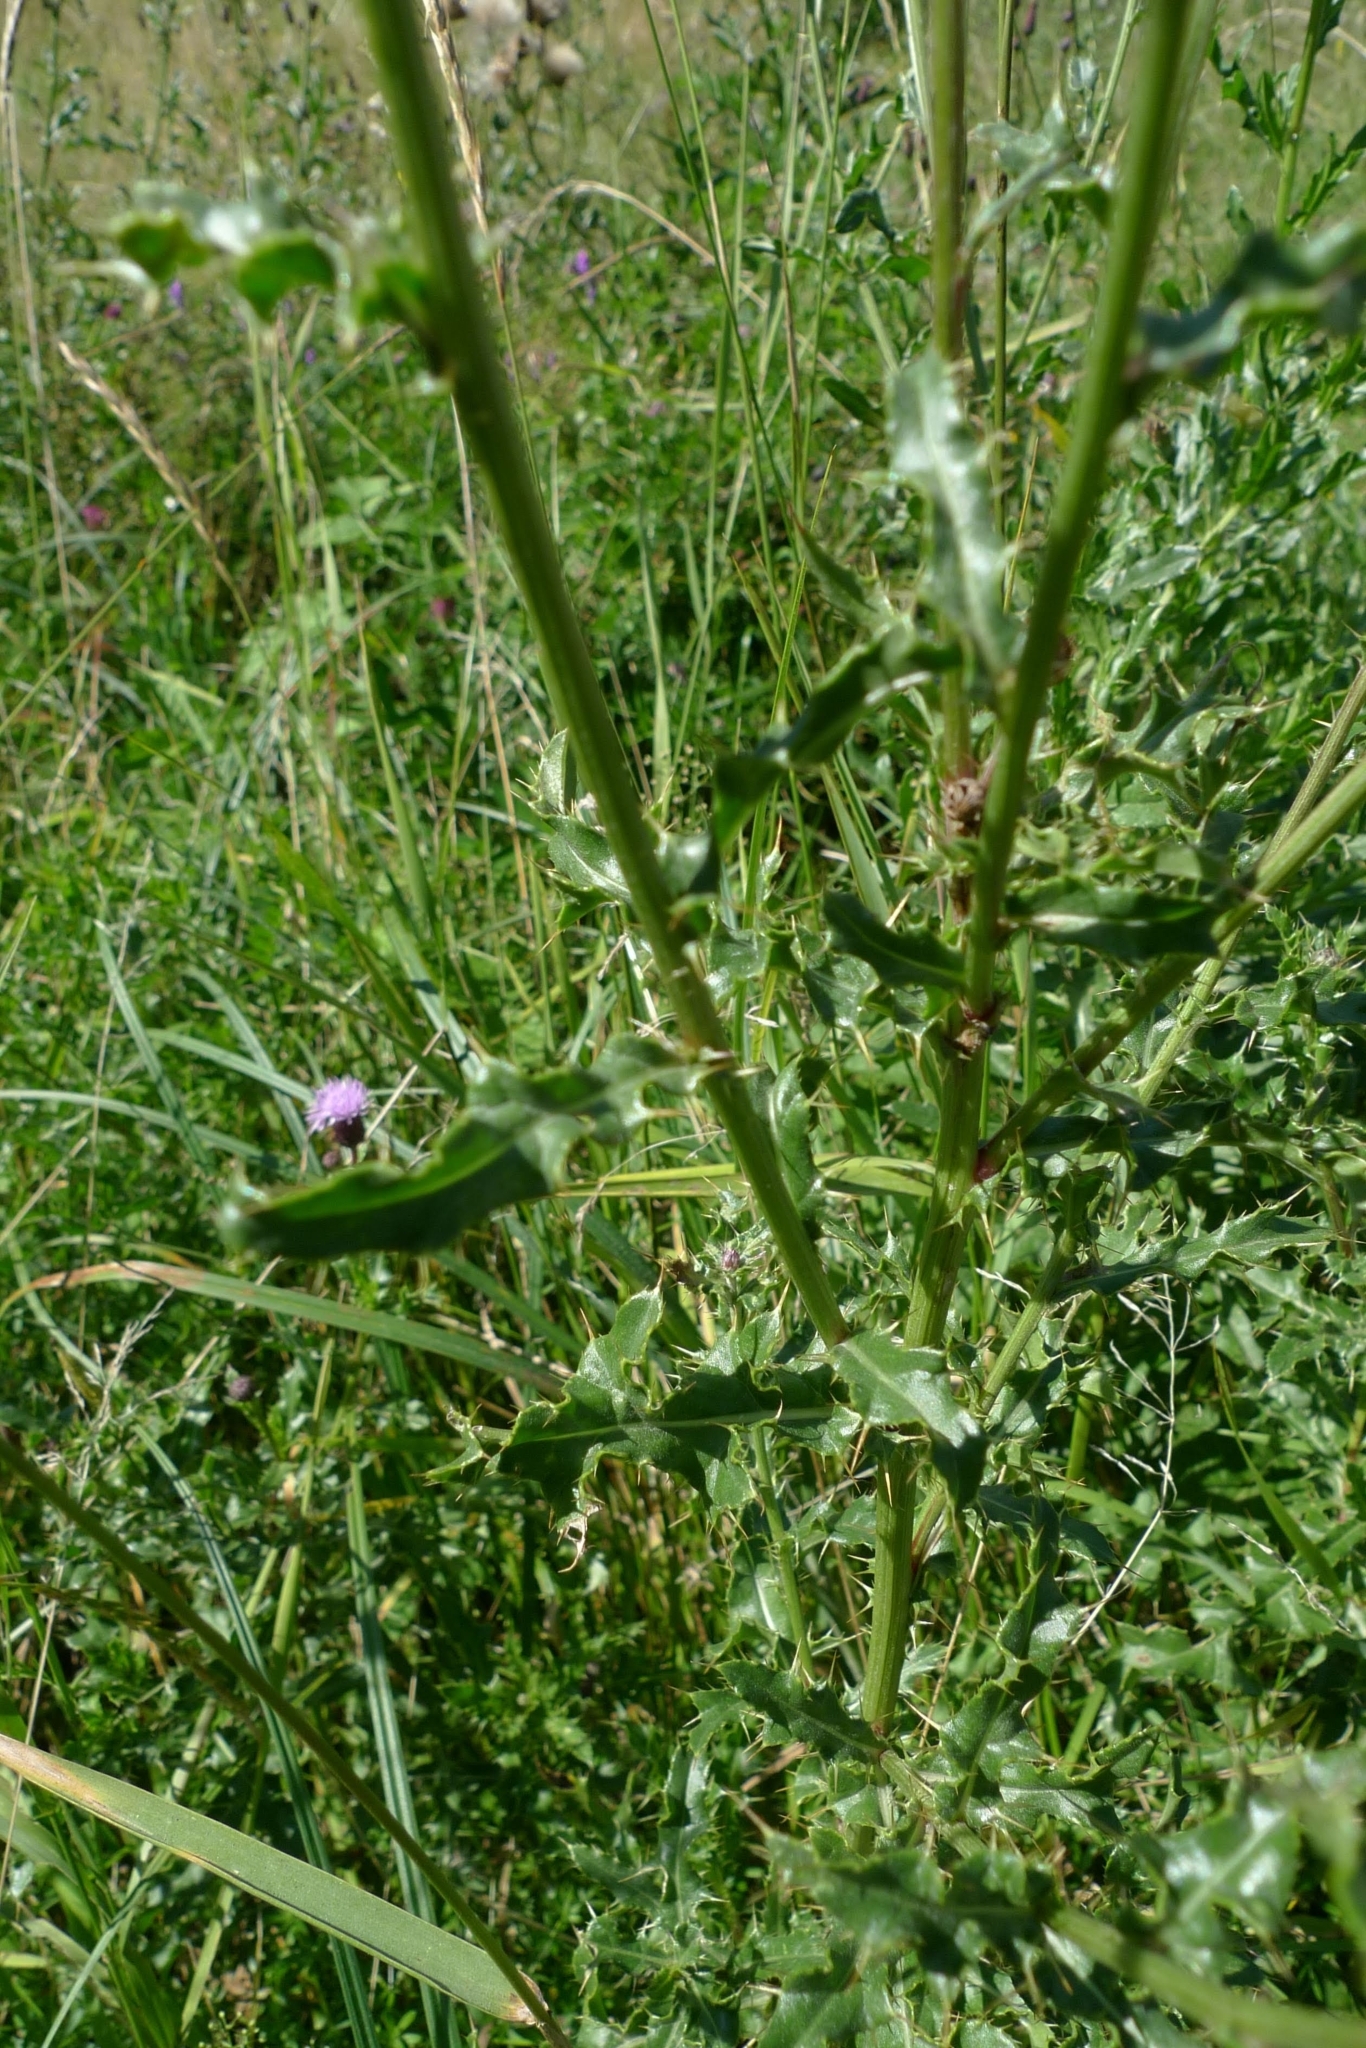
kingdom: Plantae
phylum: Tracheophyta
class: Magnoliopsida
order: Asterales
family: Asteraceae
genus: Cirsium
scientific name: Cirsium arvense
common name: Creeping thistle
